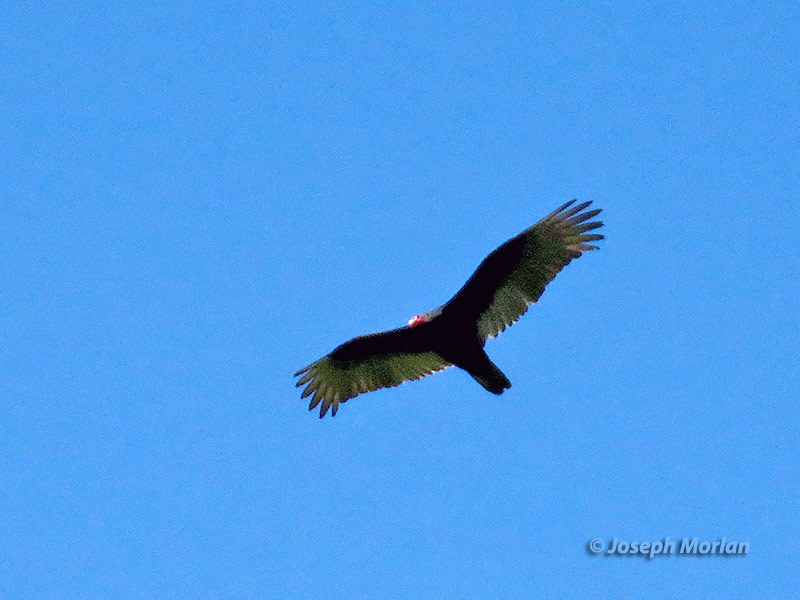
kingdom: Animalia
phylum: Chordata
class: Aves
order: Accipitriformes
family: Cathartidae
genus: Cathartes
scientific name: Cathartes aura
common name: Turkey vulture
